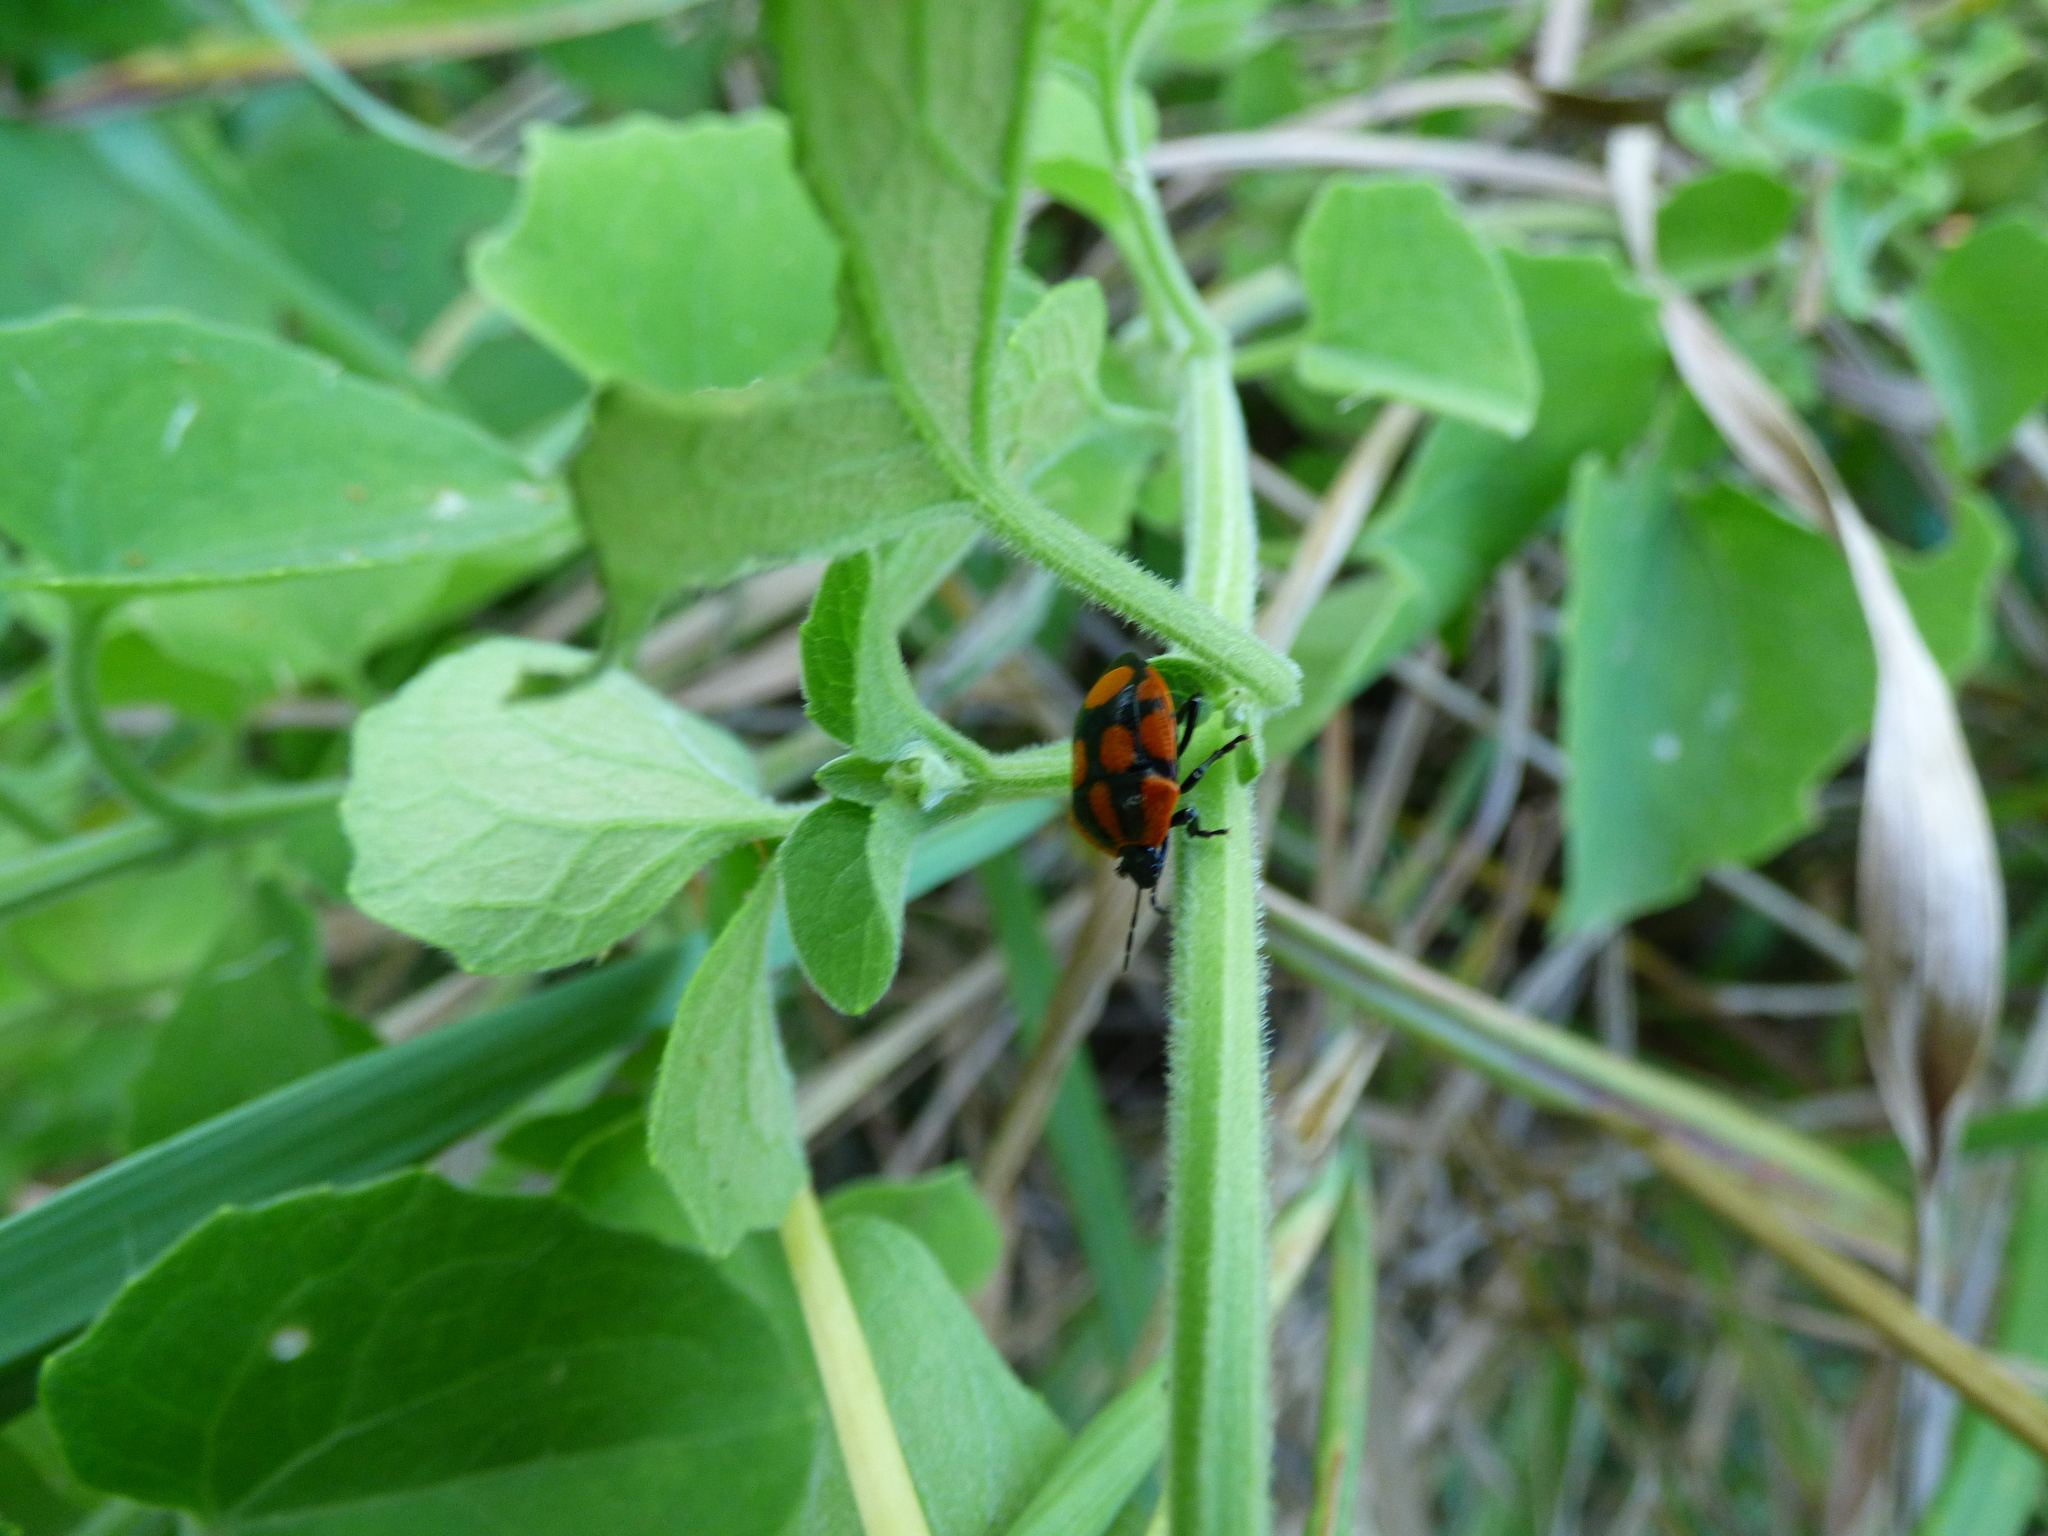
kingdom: Animalia
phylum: Arthropoda
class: Insecta
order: Hemiptera
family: Pentatomidae
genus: Stiretrus
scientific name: Stiretrus
